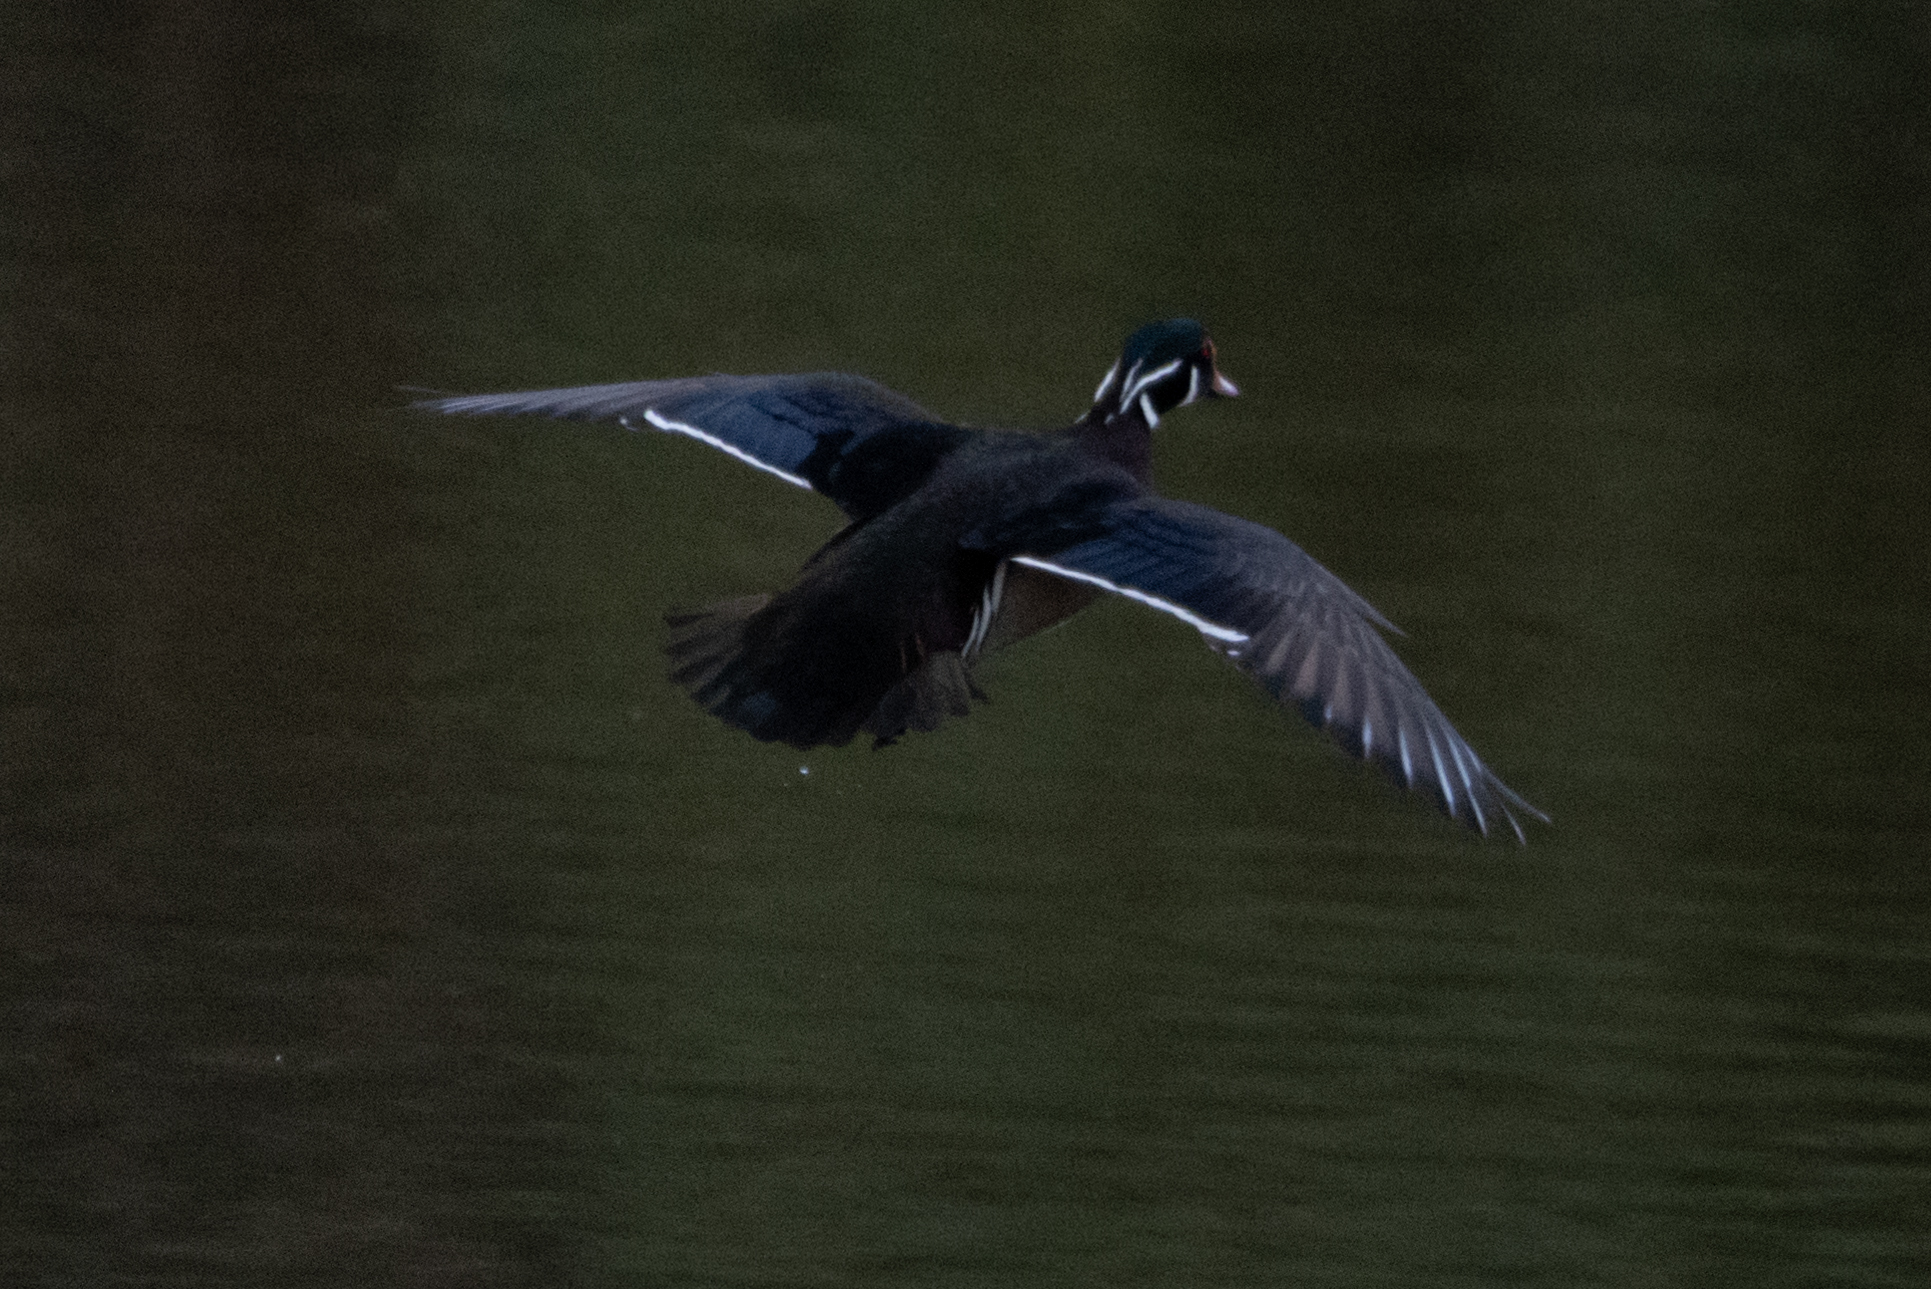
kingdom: Animalia
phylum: Chordata
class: Aves
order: Anseriformes
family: Anatidae
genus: Aix
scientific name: Aix sponsa
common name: Wood duck
